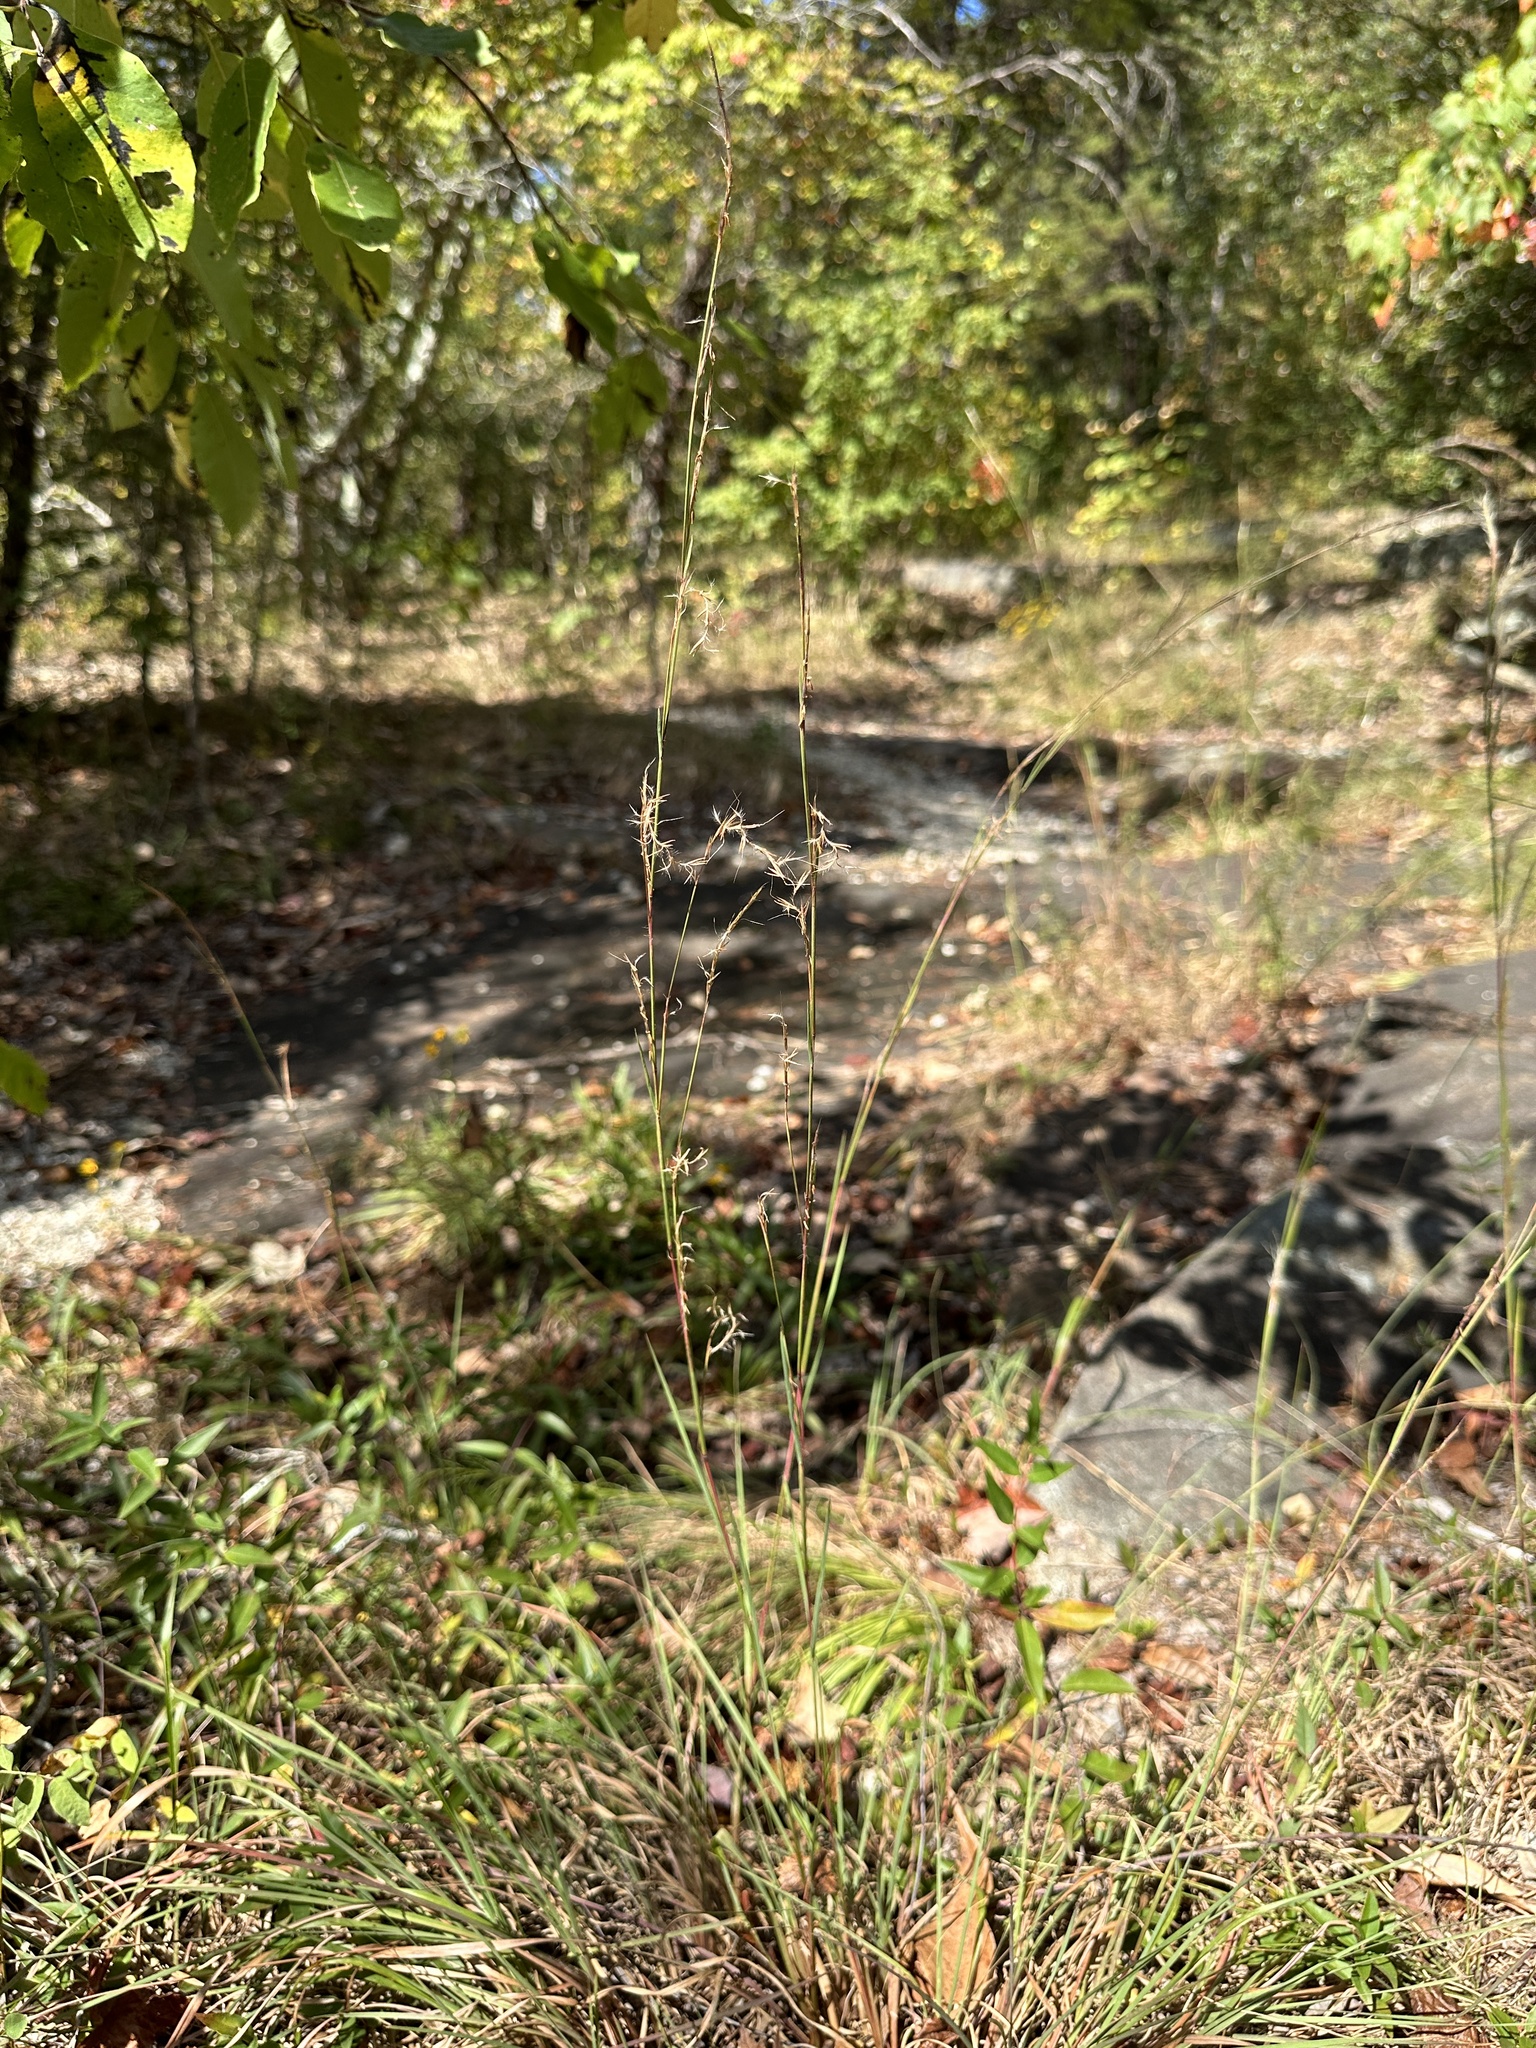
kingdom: Plantae
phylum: Tracheophyta
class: Liliopsida
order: Poales
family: Poaceae
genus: Schizachyrium
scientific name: Schizachyrium scoparium
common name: Little bluestem
